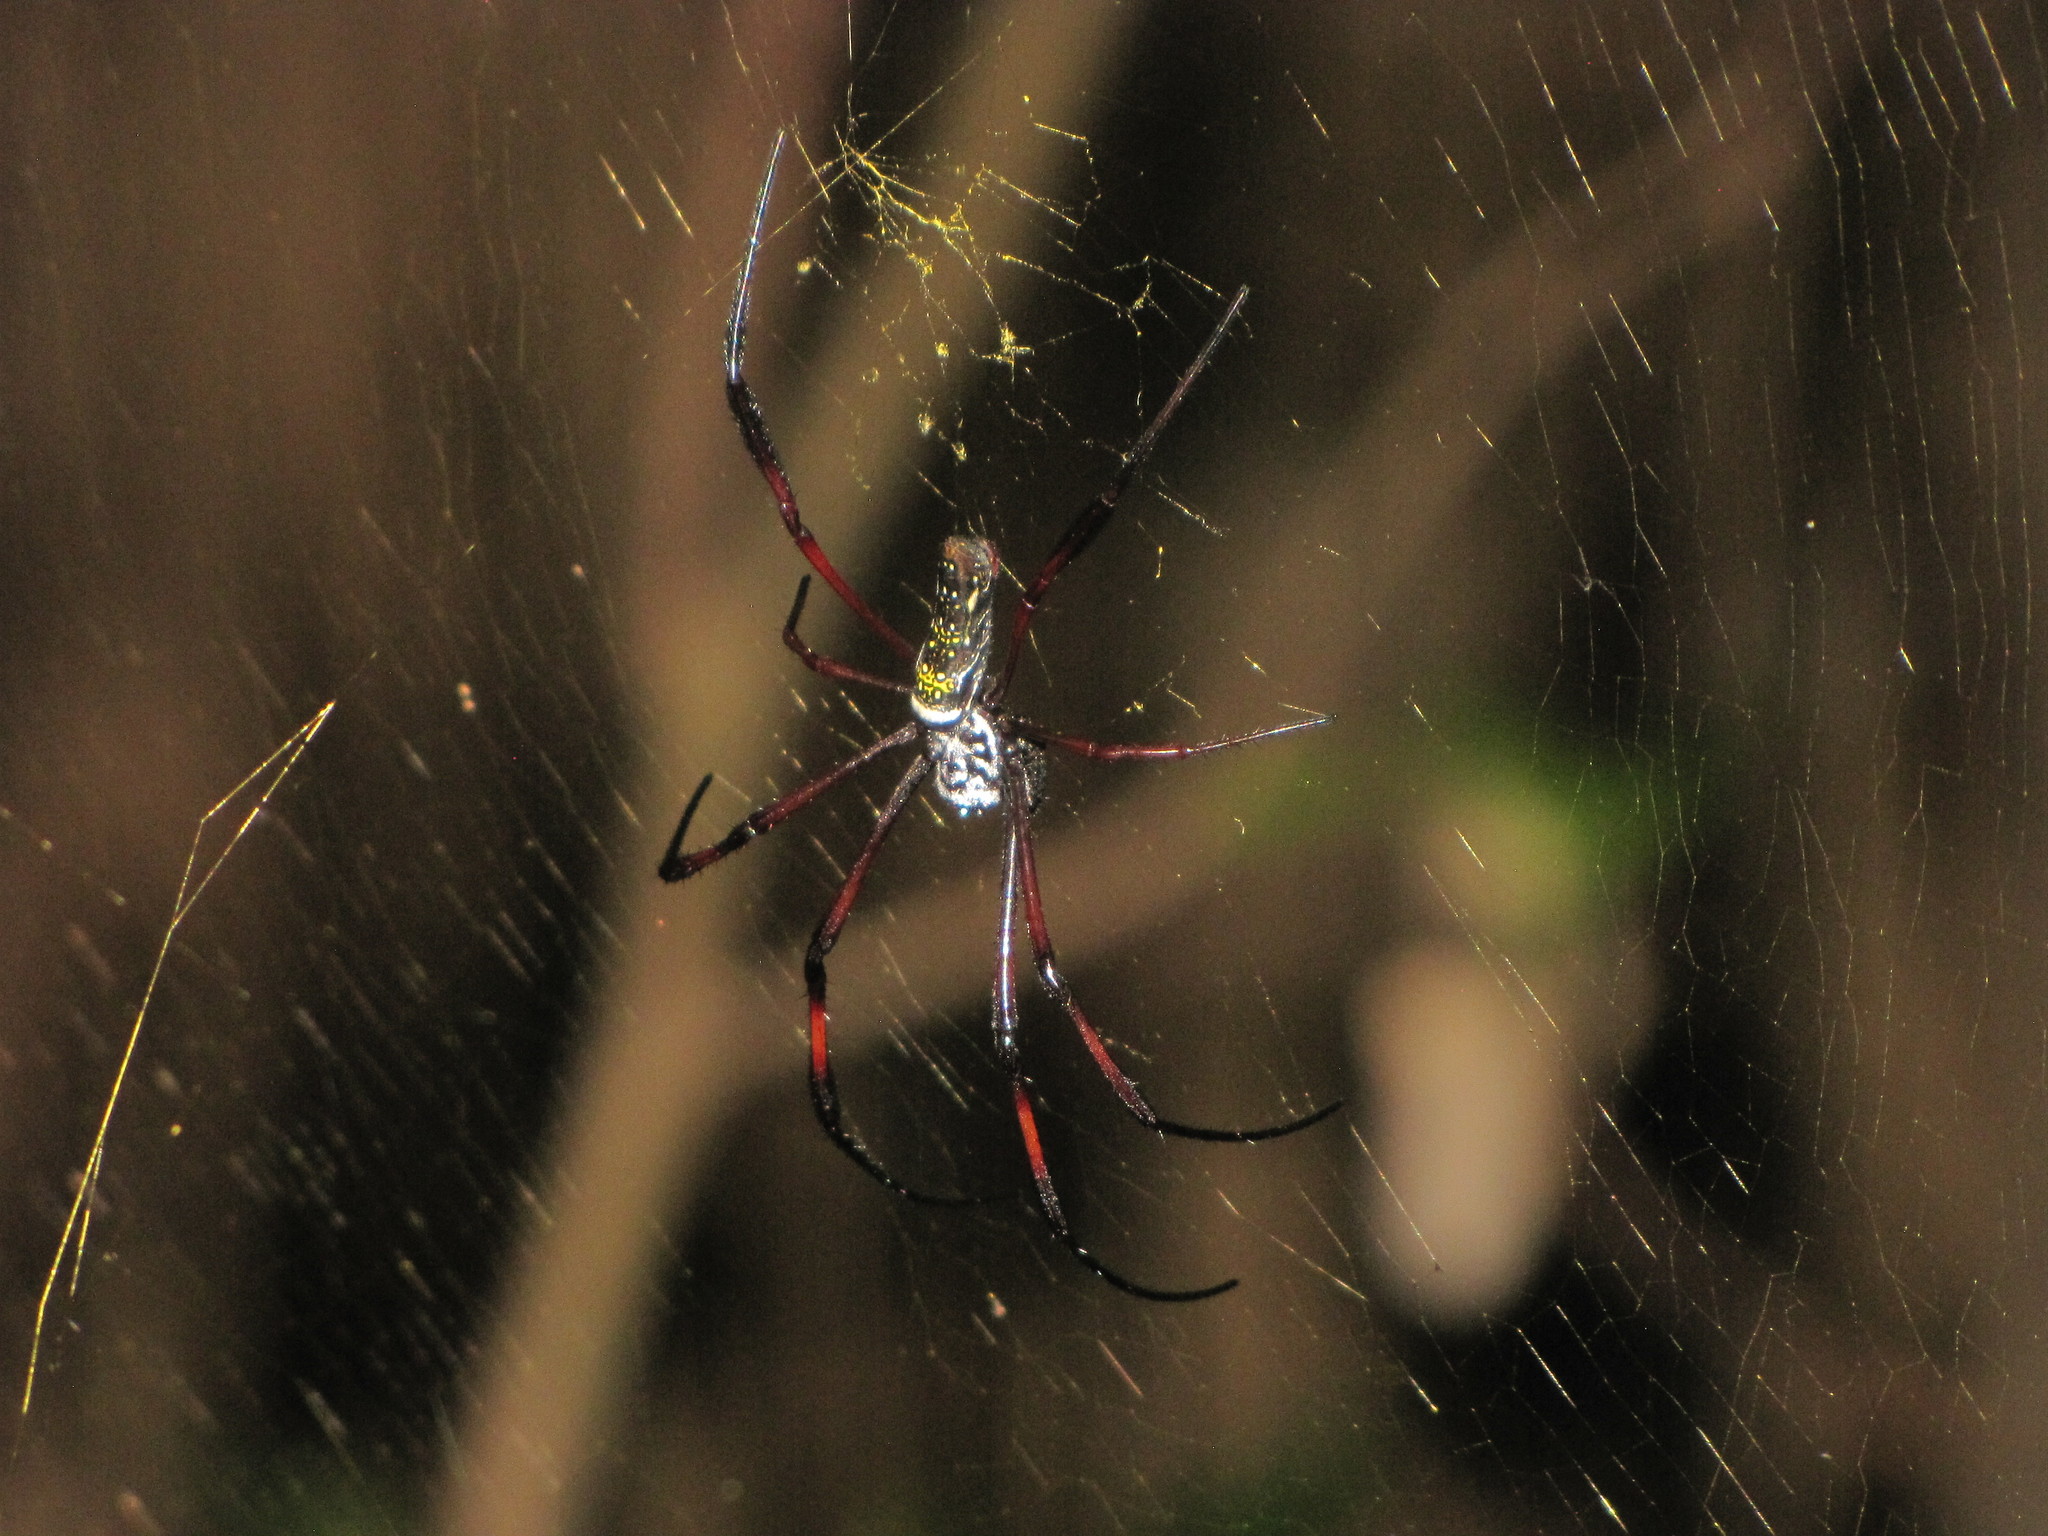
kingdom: Animalia
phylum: Arthropoda
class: Arachnida
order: Araneae
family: Araneidae
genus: Trichonephila
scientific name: Trichonephila inaurata
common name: Red-legged golden orb weaver
